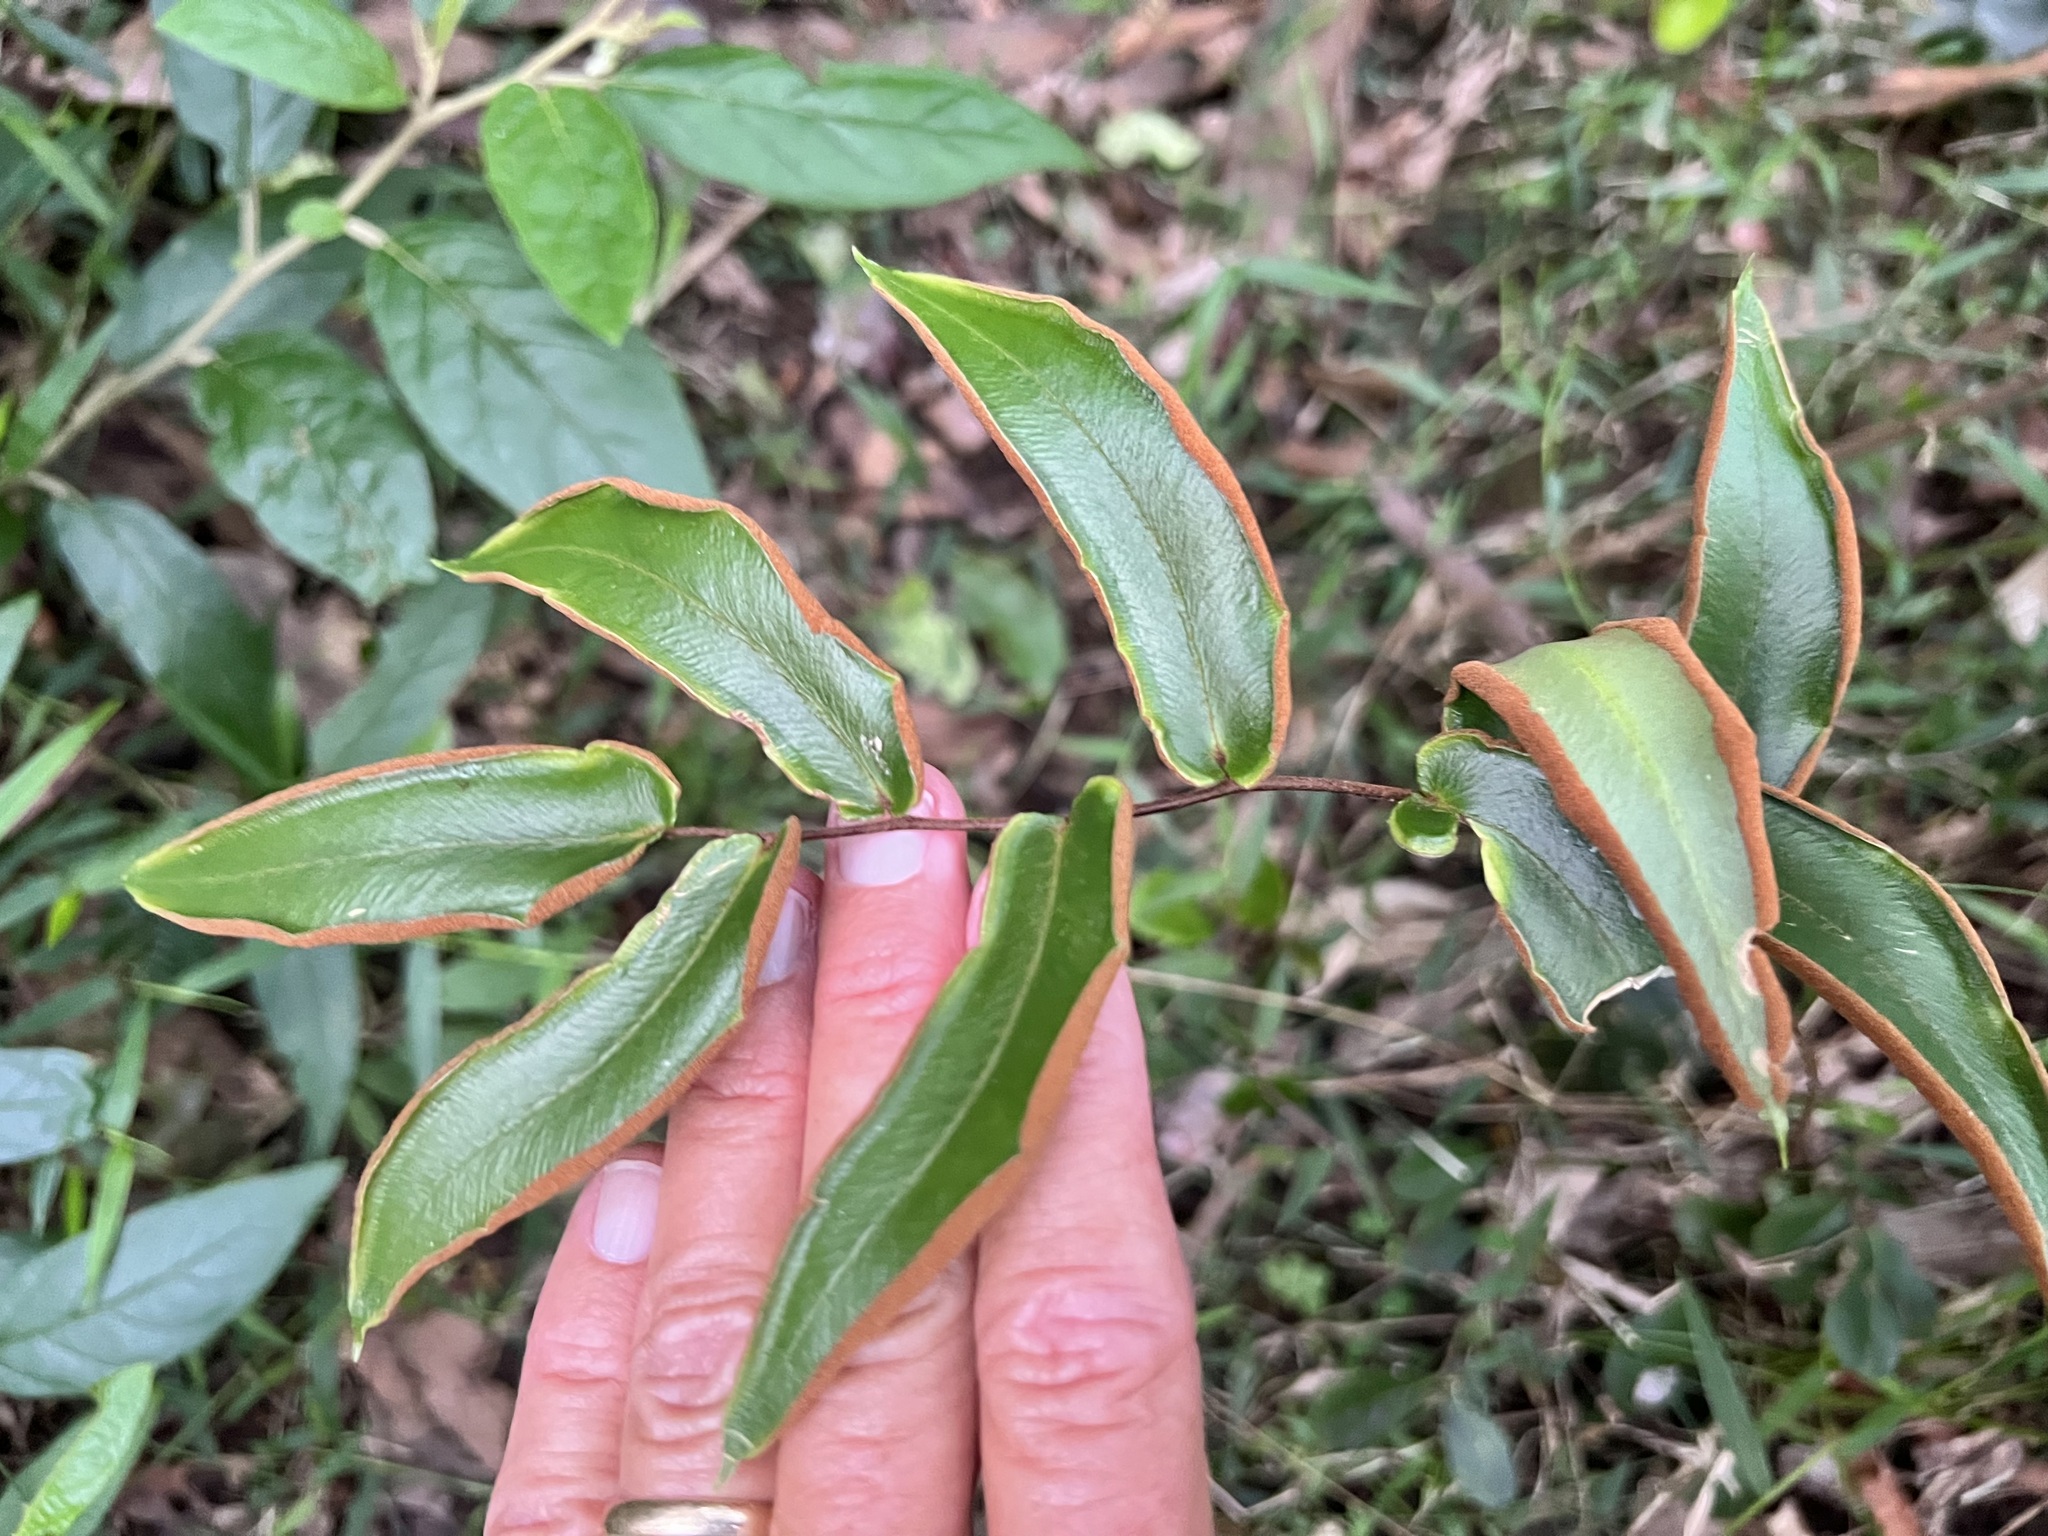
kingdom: Plantae
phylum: Tracheophyta
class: Polypodiopsida
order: Polypodiales
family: Pteridaceae
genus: Pellaea
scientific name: Pellaea paradoxa
